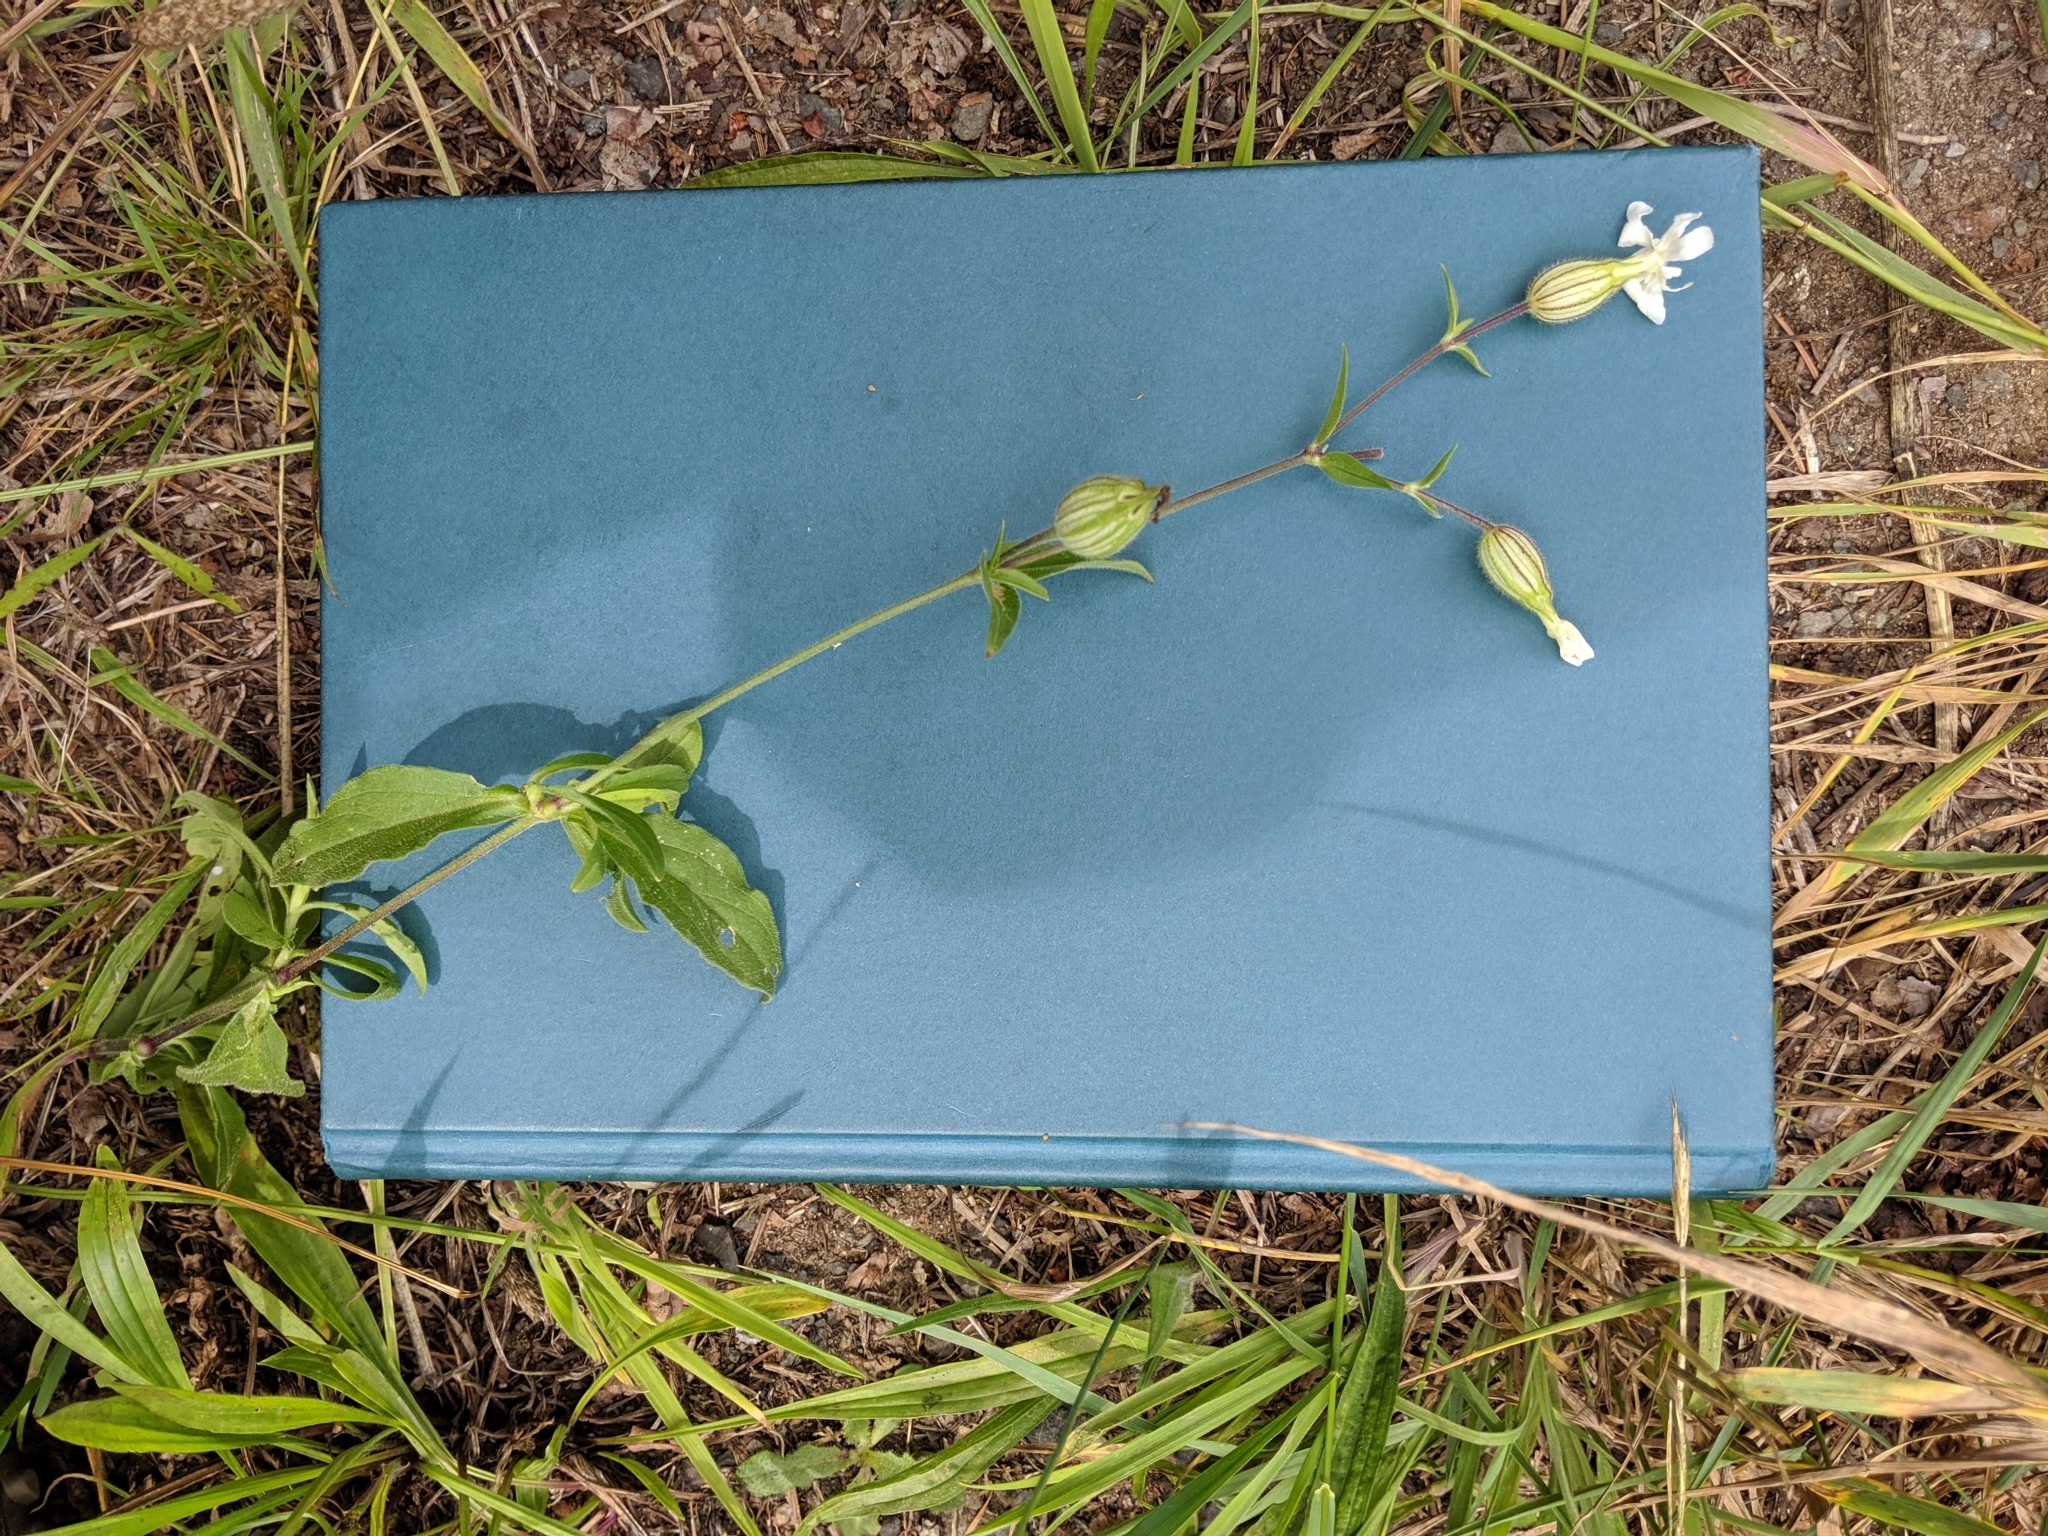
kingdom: Plantae
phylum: Tracheophyta
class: Magnoliopsida
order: Caryophyllales
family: Caryophyllaceae
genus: Silene
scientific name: Silene latifolia
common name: White campion
